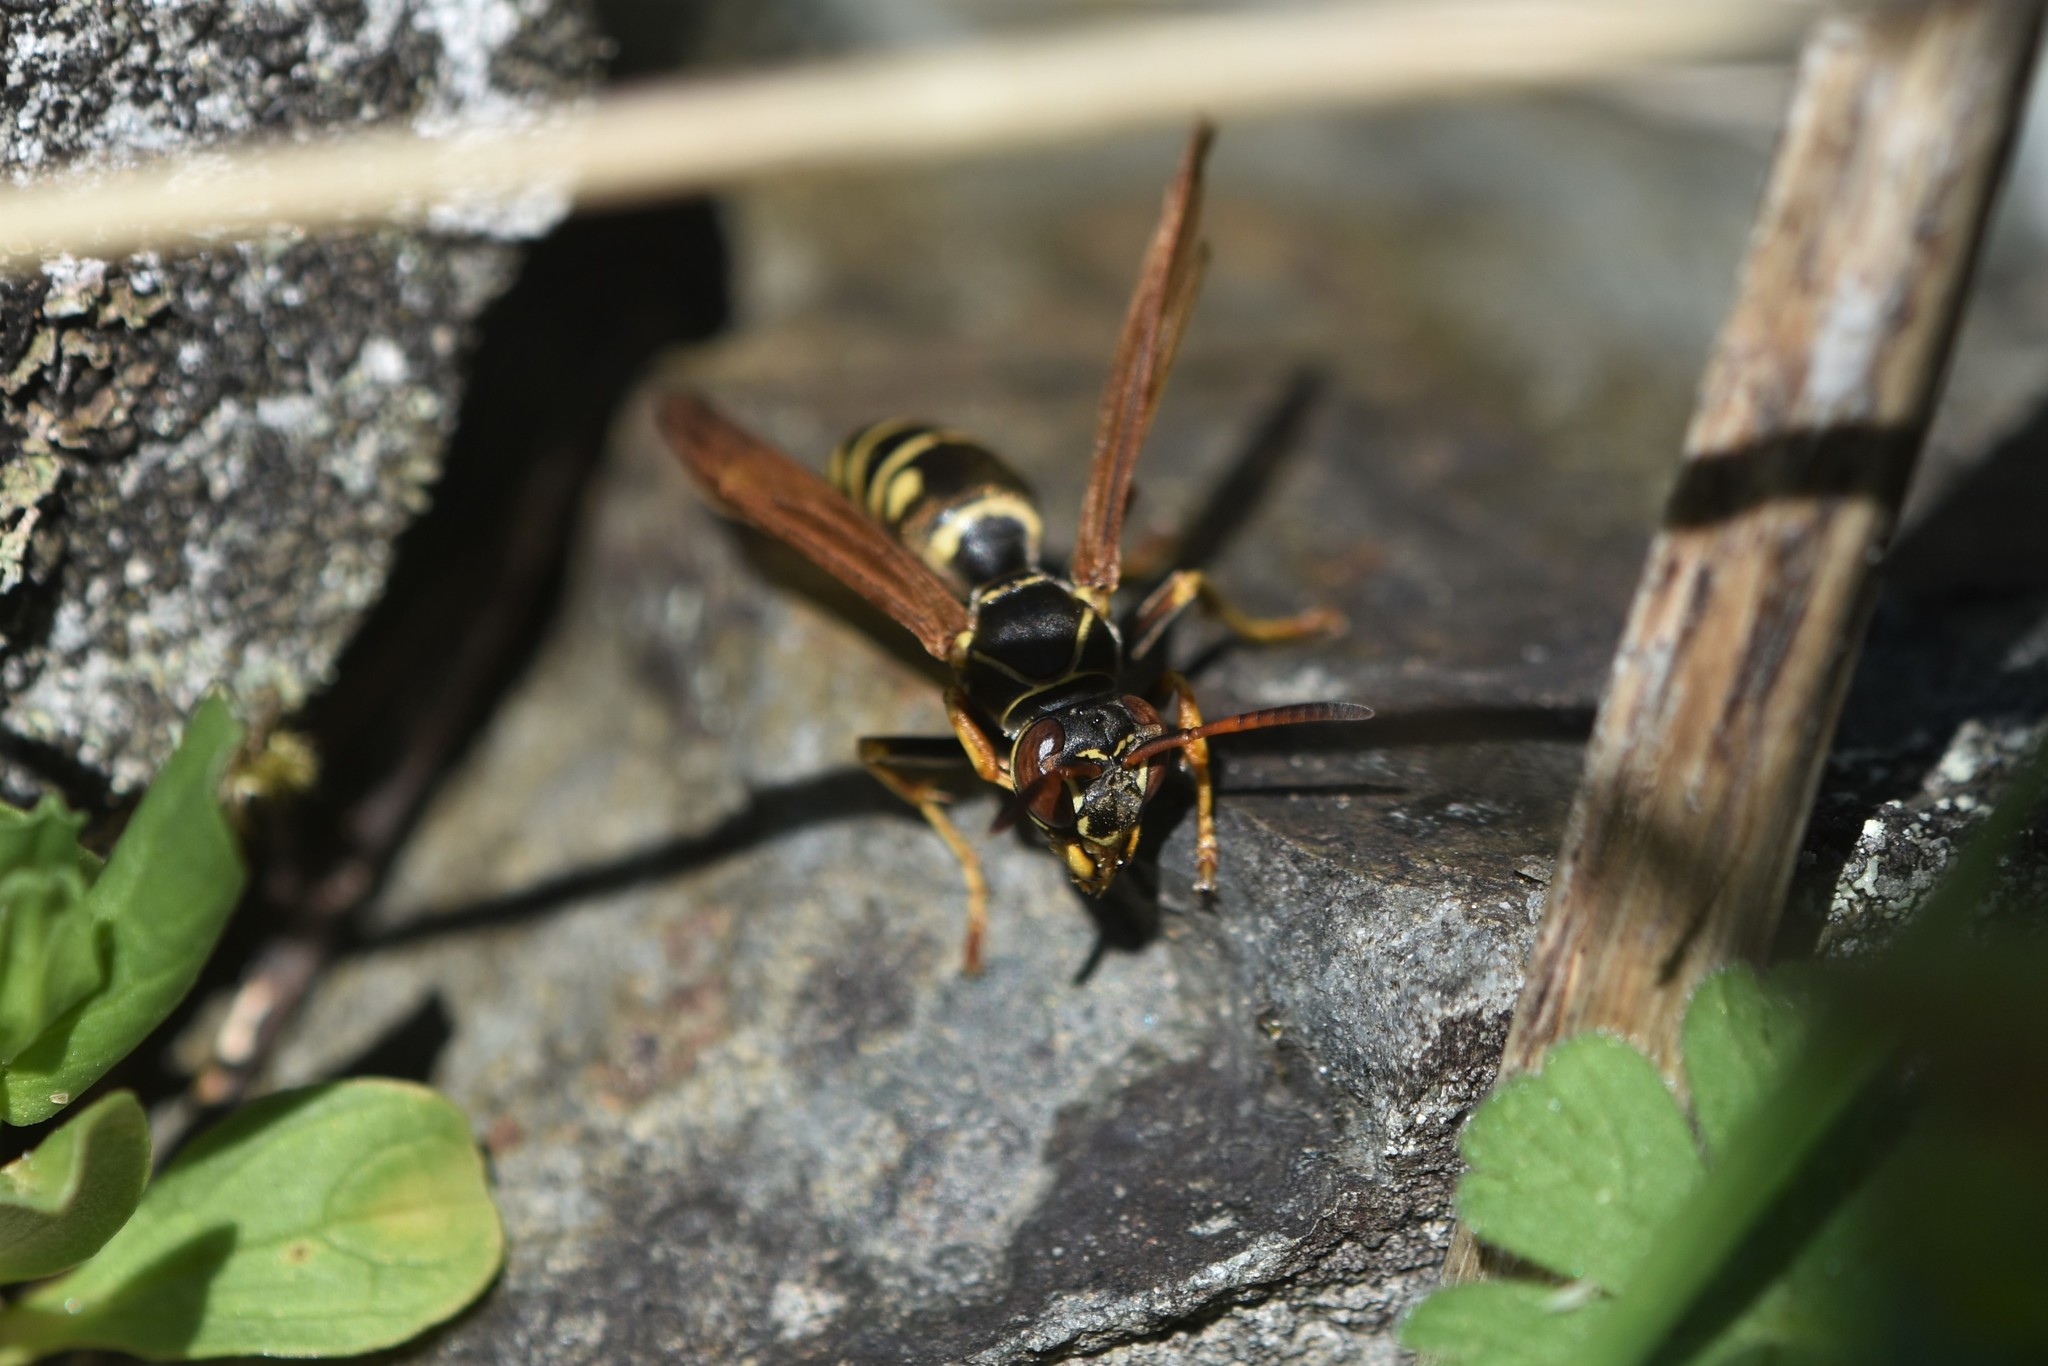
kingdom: Animalia
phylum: Arthropoda
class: Insecta
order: Hymenoptera
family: Eumenidae
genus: Polistes
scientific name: Polistes aurifer
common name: Paper wasp
